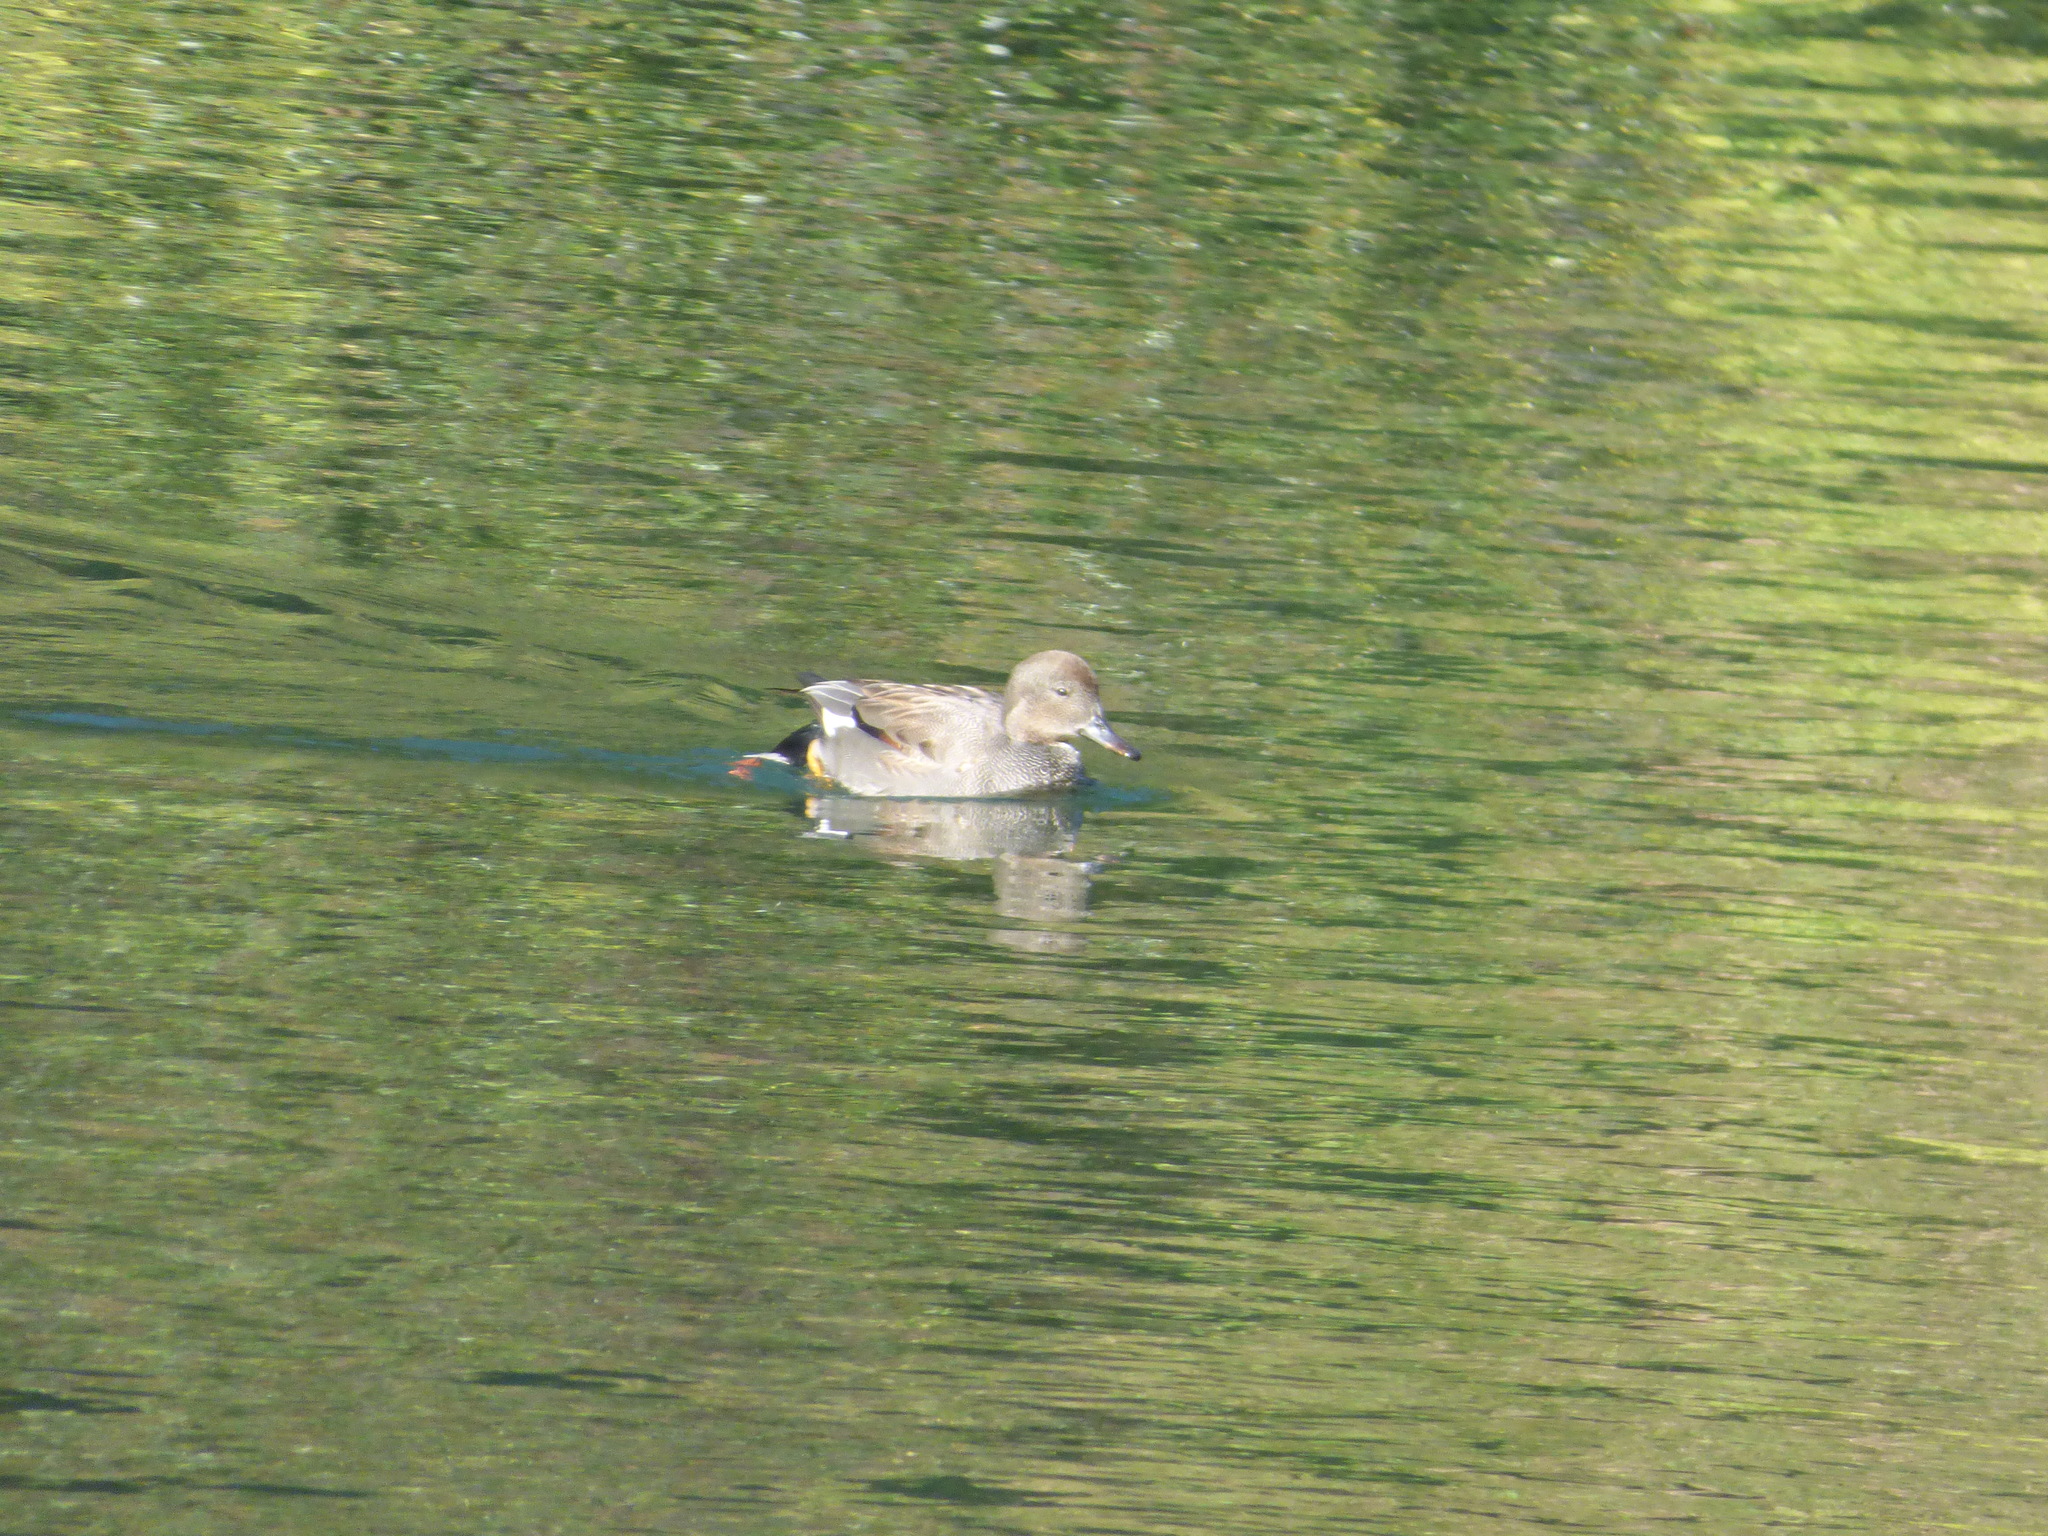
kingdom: Animalia
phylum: Chordata
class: Aves
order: Anseriformes
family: Anatidae
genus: Mareca
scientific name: Mareca strepera
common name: Gadwall
